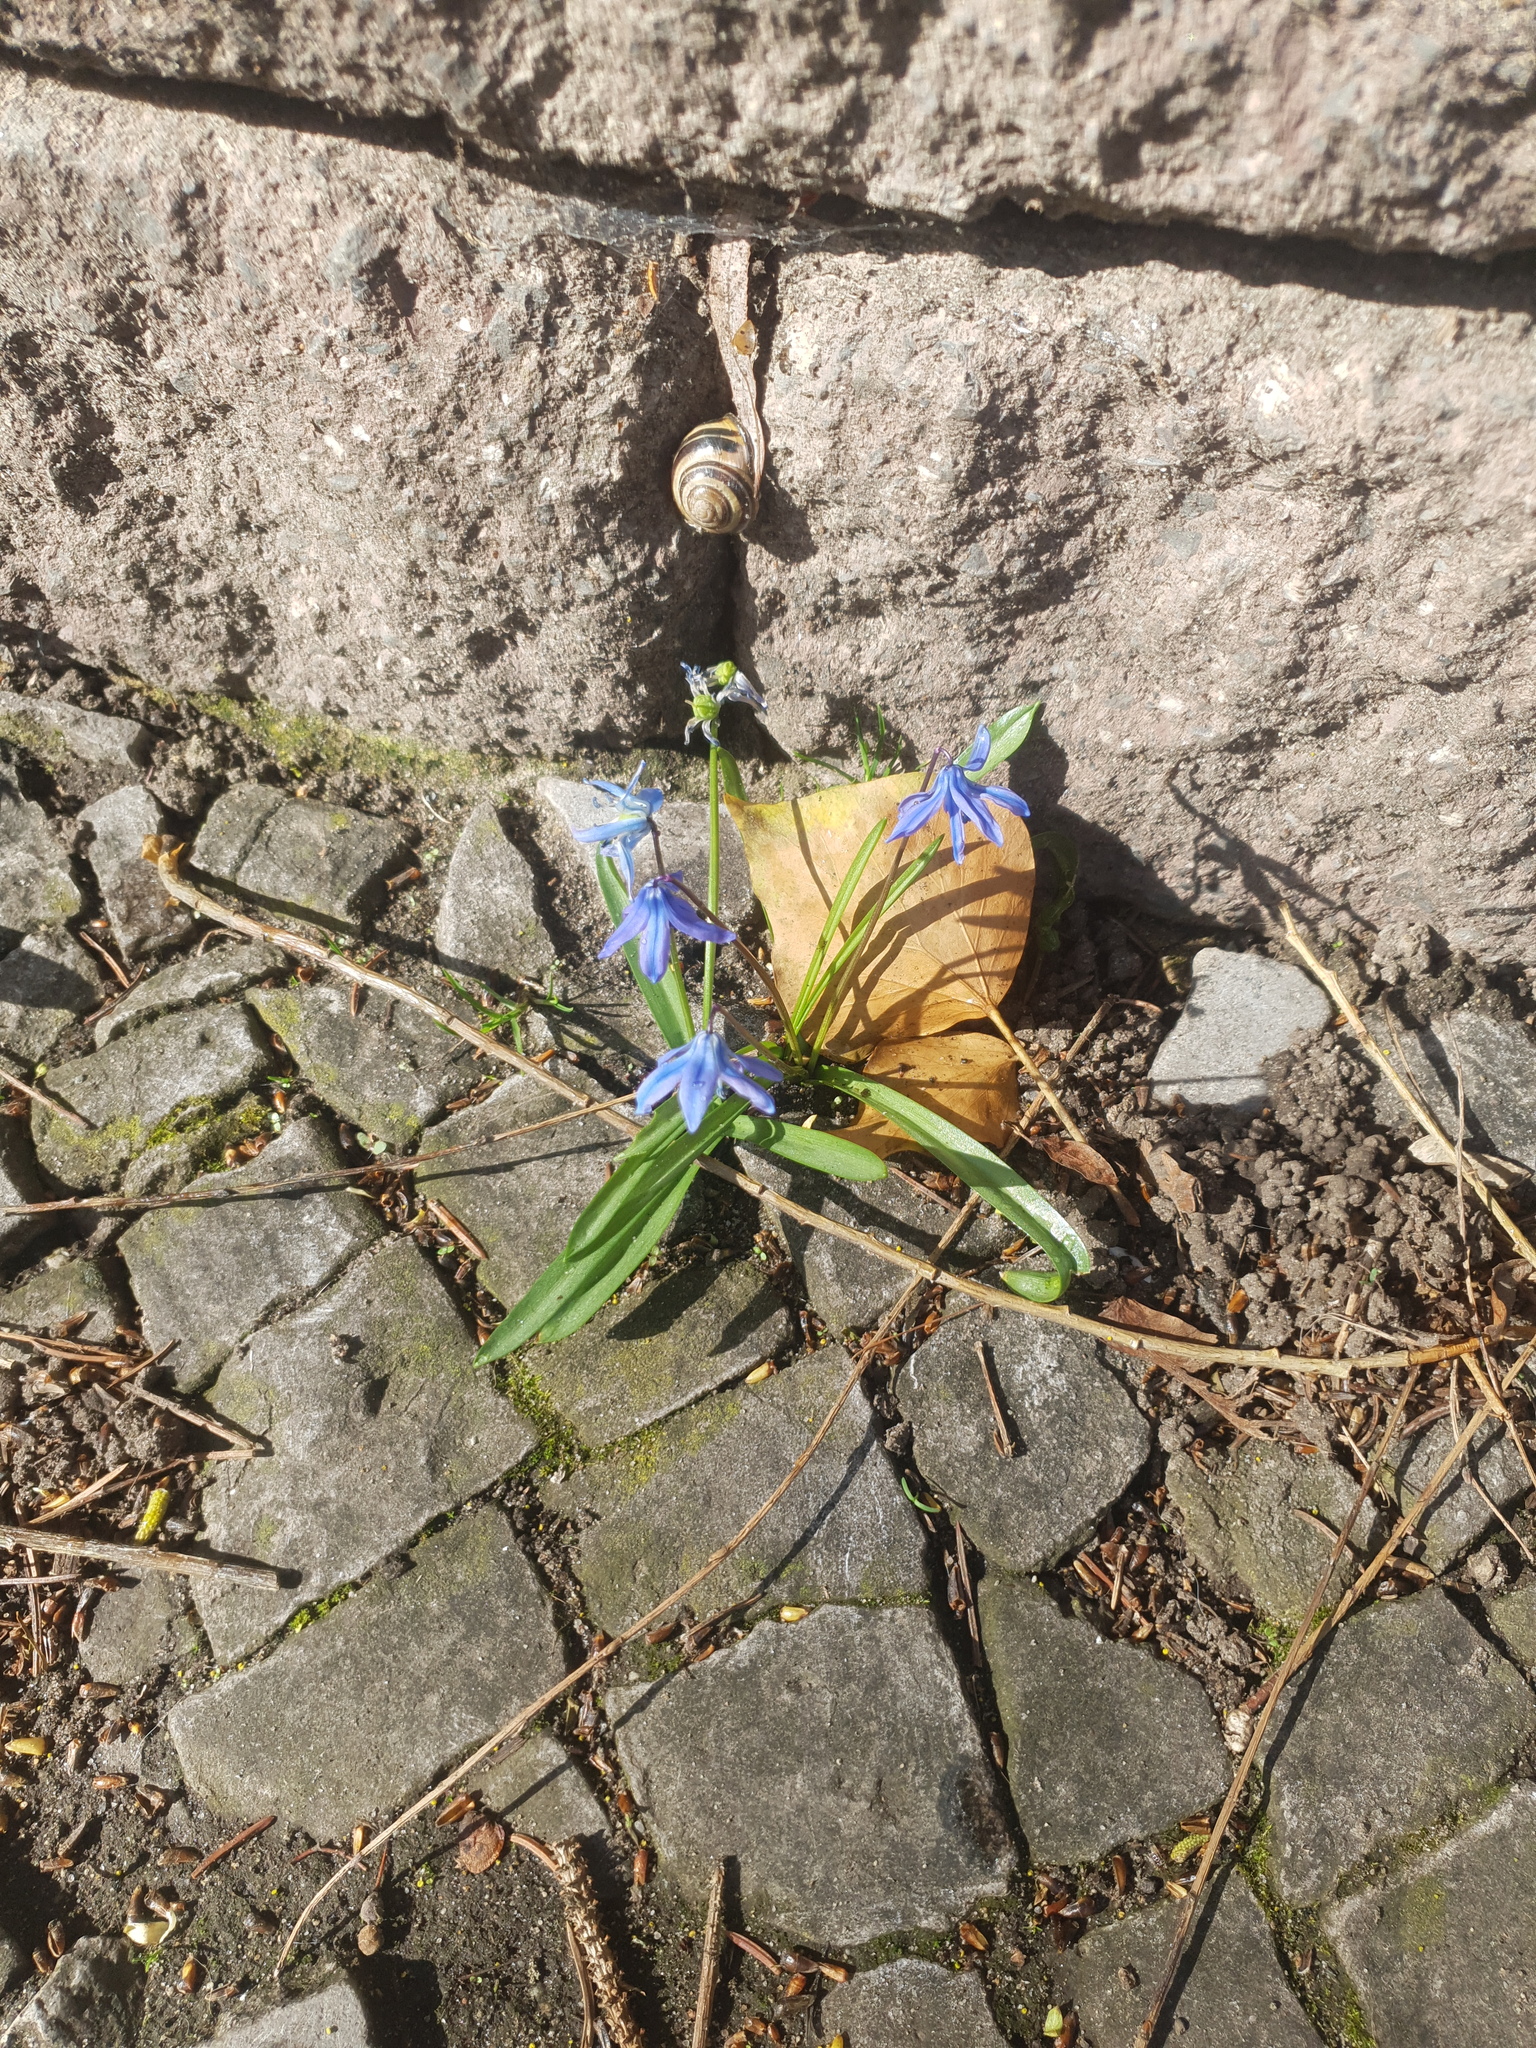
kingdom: Plantae
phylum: Tracheophyta
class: Liliopsida
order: Asparagales
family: Asparagaceae
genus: Scilla
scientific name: Scilla siberica
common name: Siberian squill
